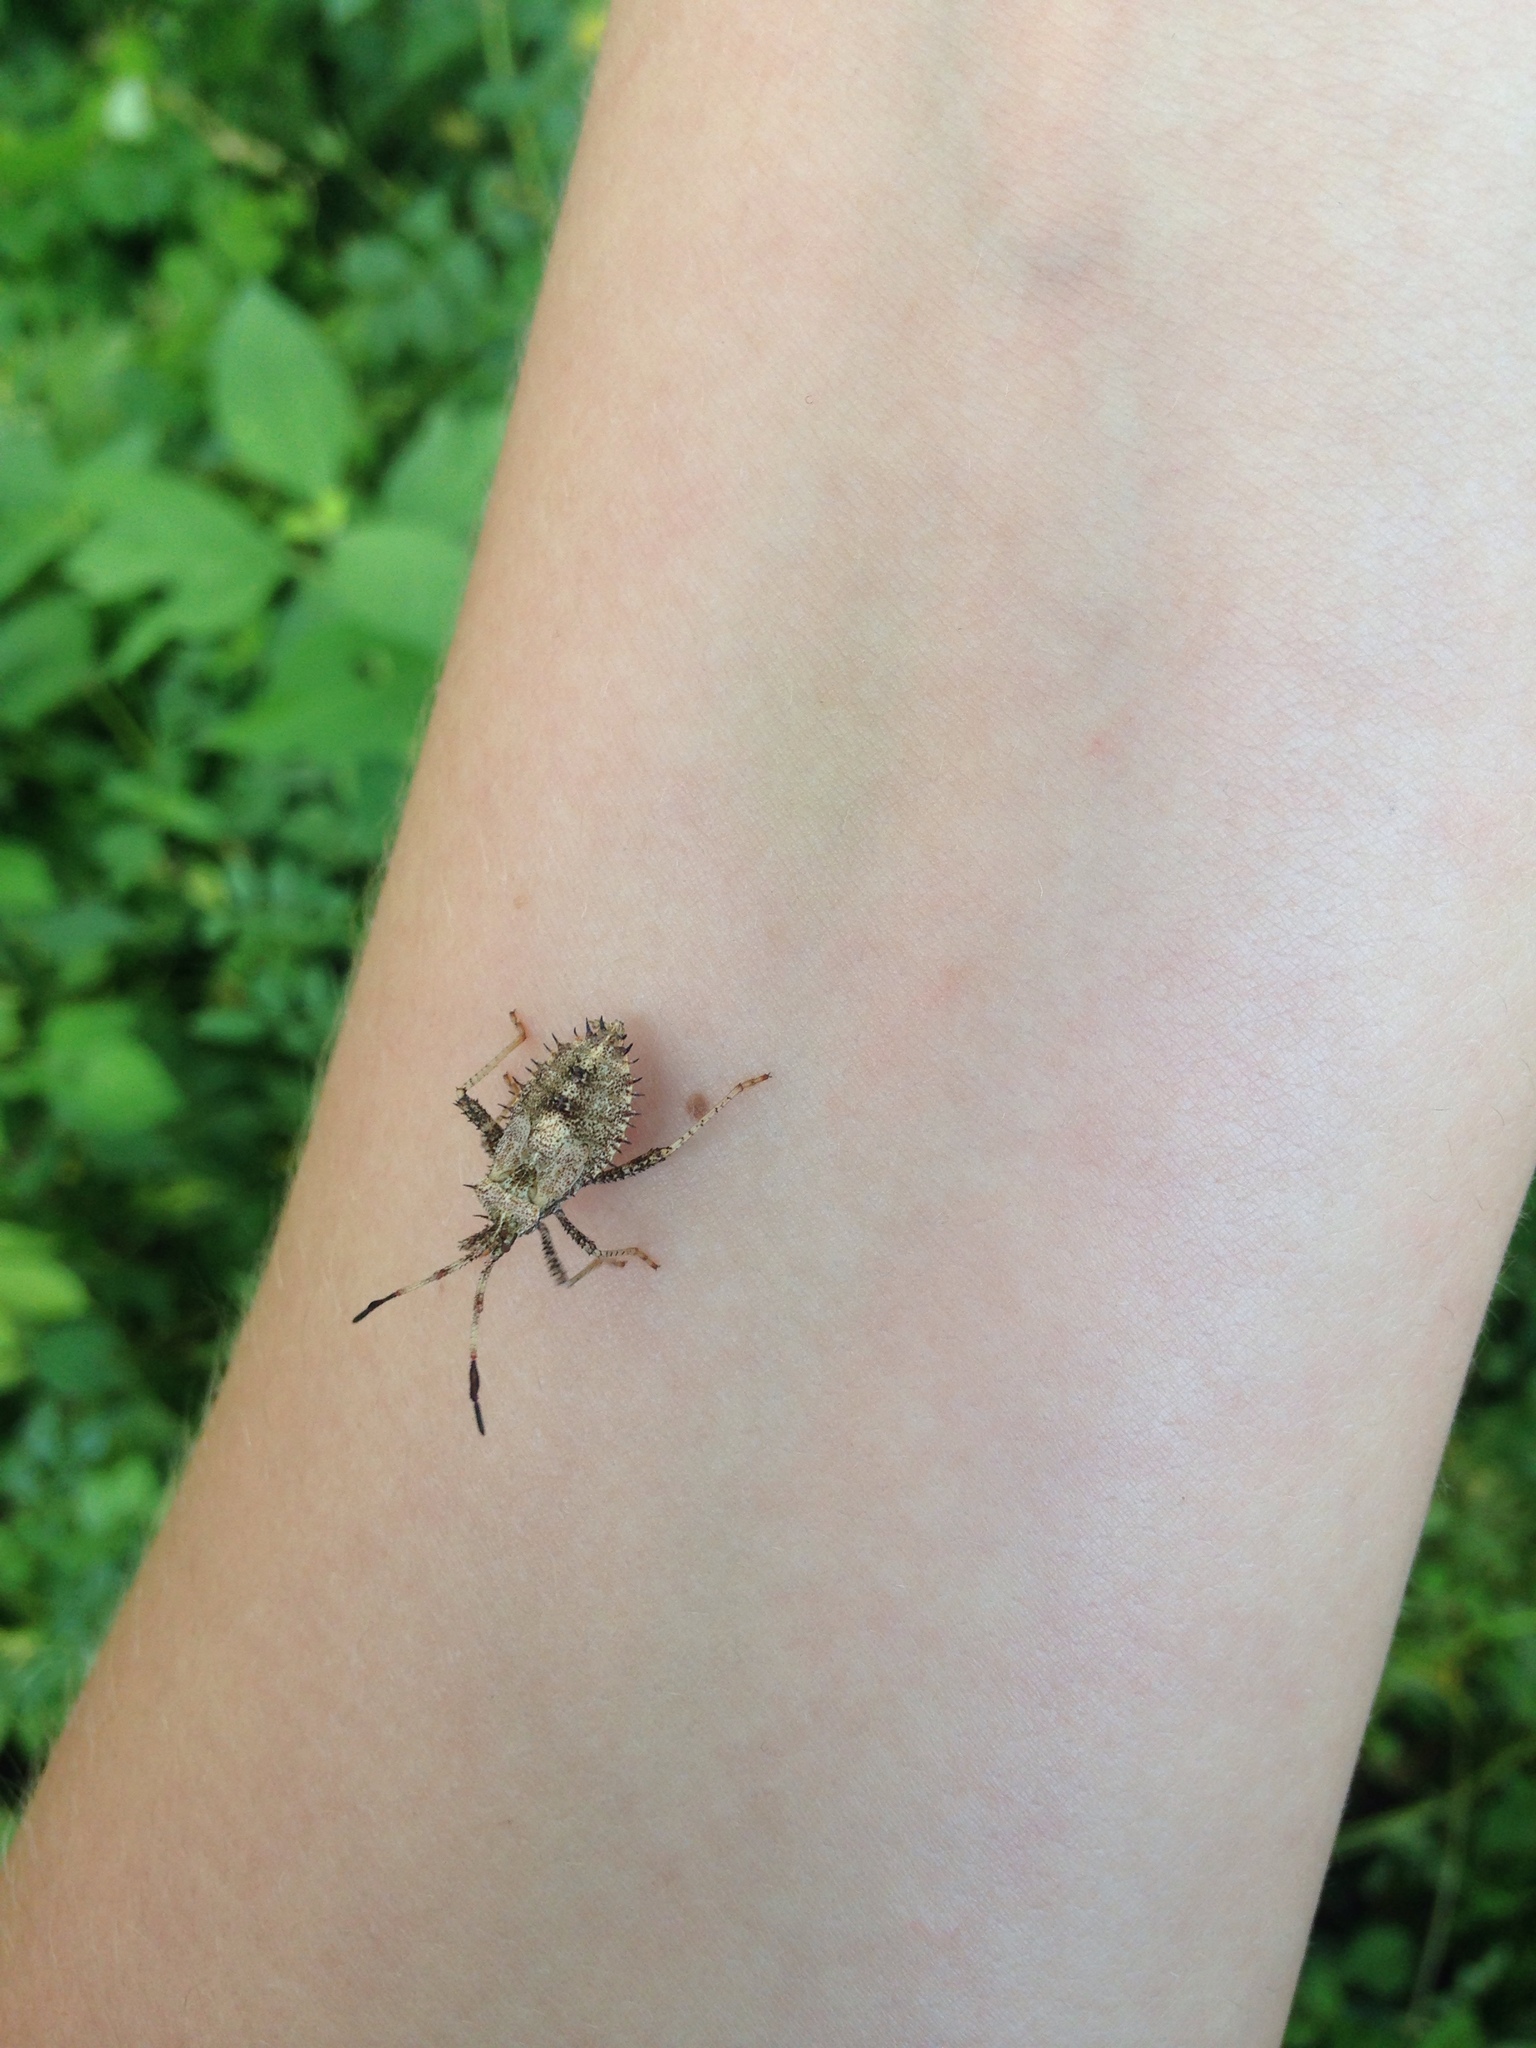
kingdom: Animalia
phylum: Arthropoda
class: Insecta
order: Hemiptera
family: Coreidae
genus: Euthochtha
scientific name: Euthochtha galeator
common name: Helmeted squash bug
